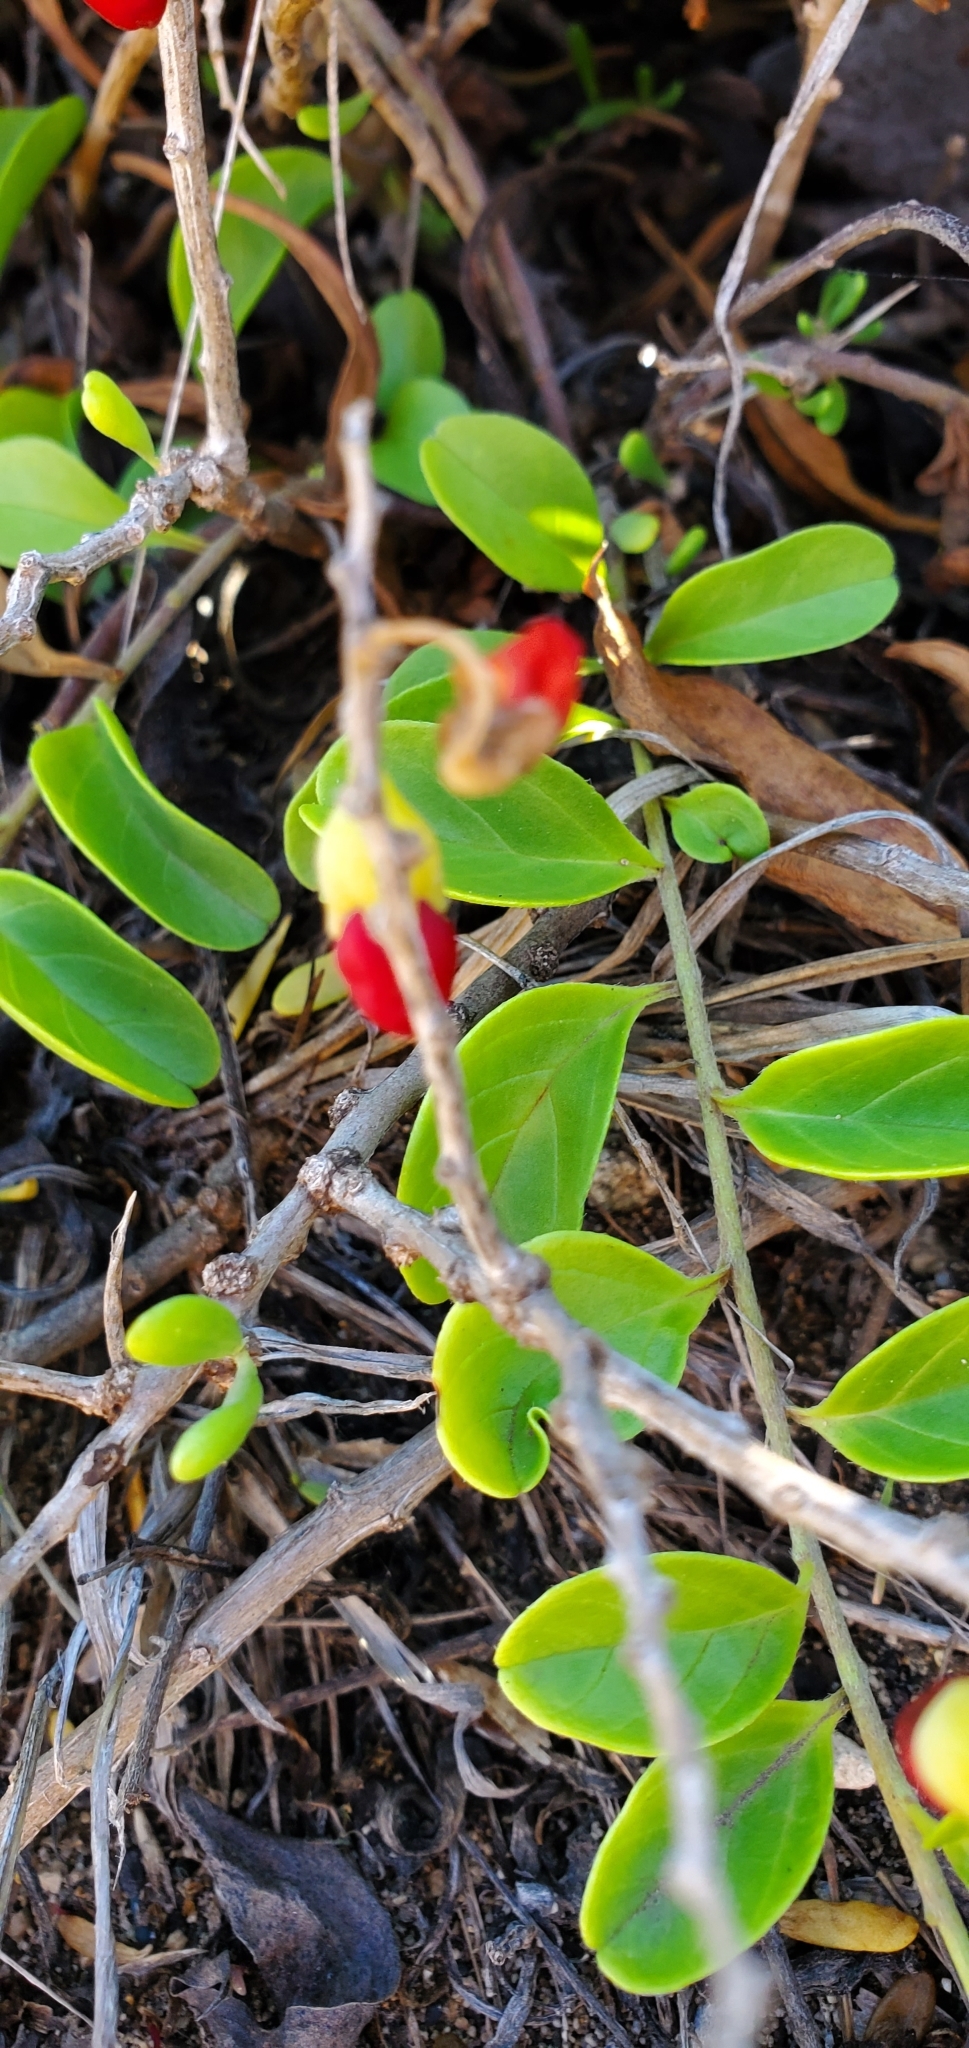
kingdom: Plantae
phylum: Tracheophyta
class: Magnoliopsida
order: Solanales
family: Solanaceae
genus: Lycium
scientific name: Lycium sandwicense
